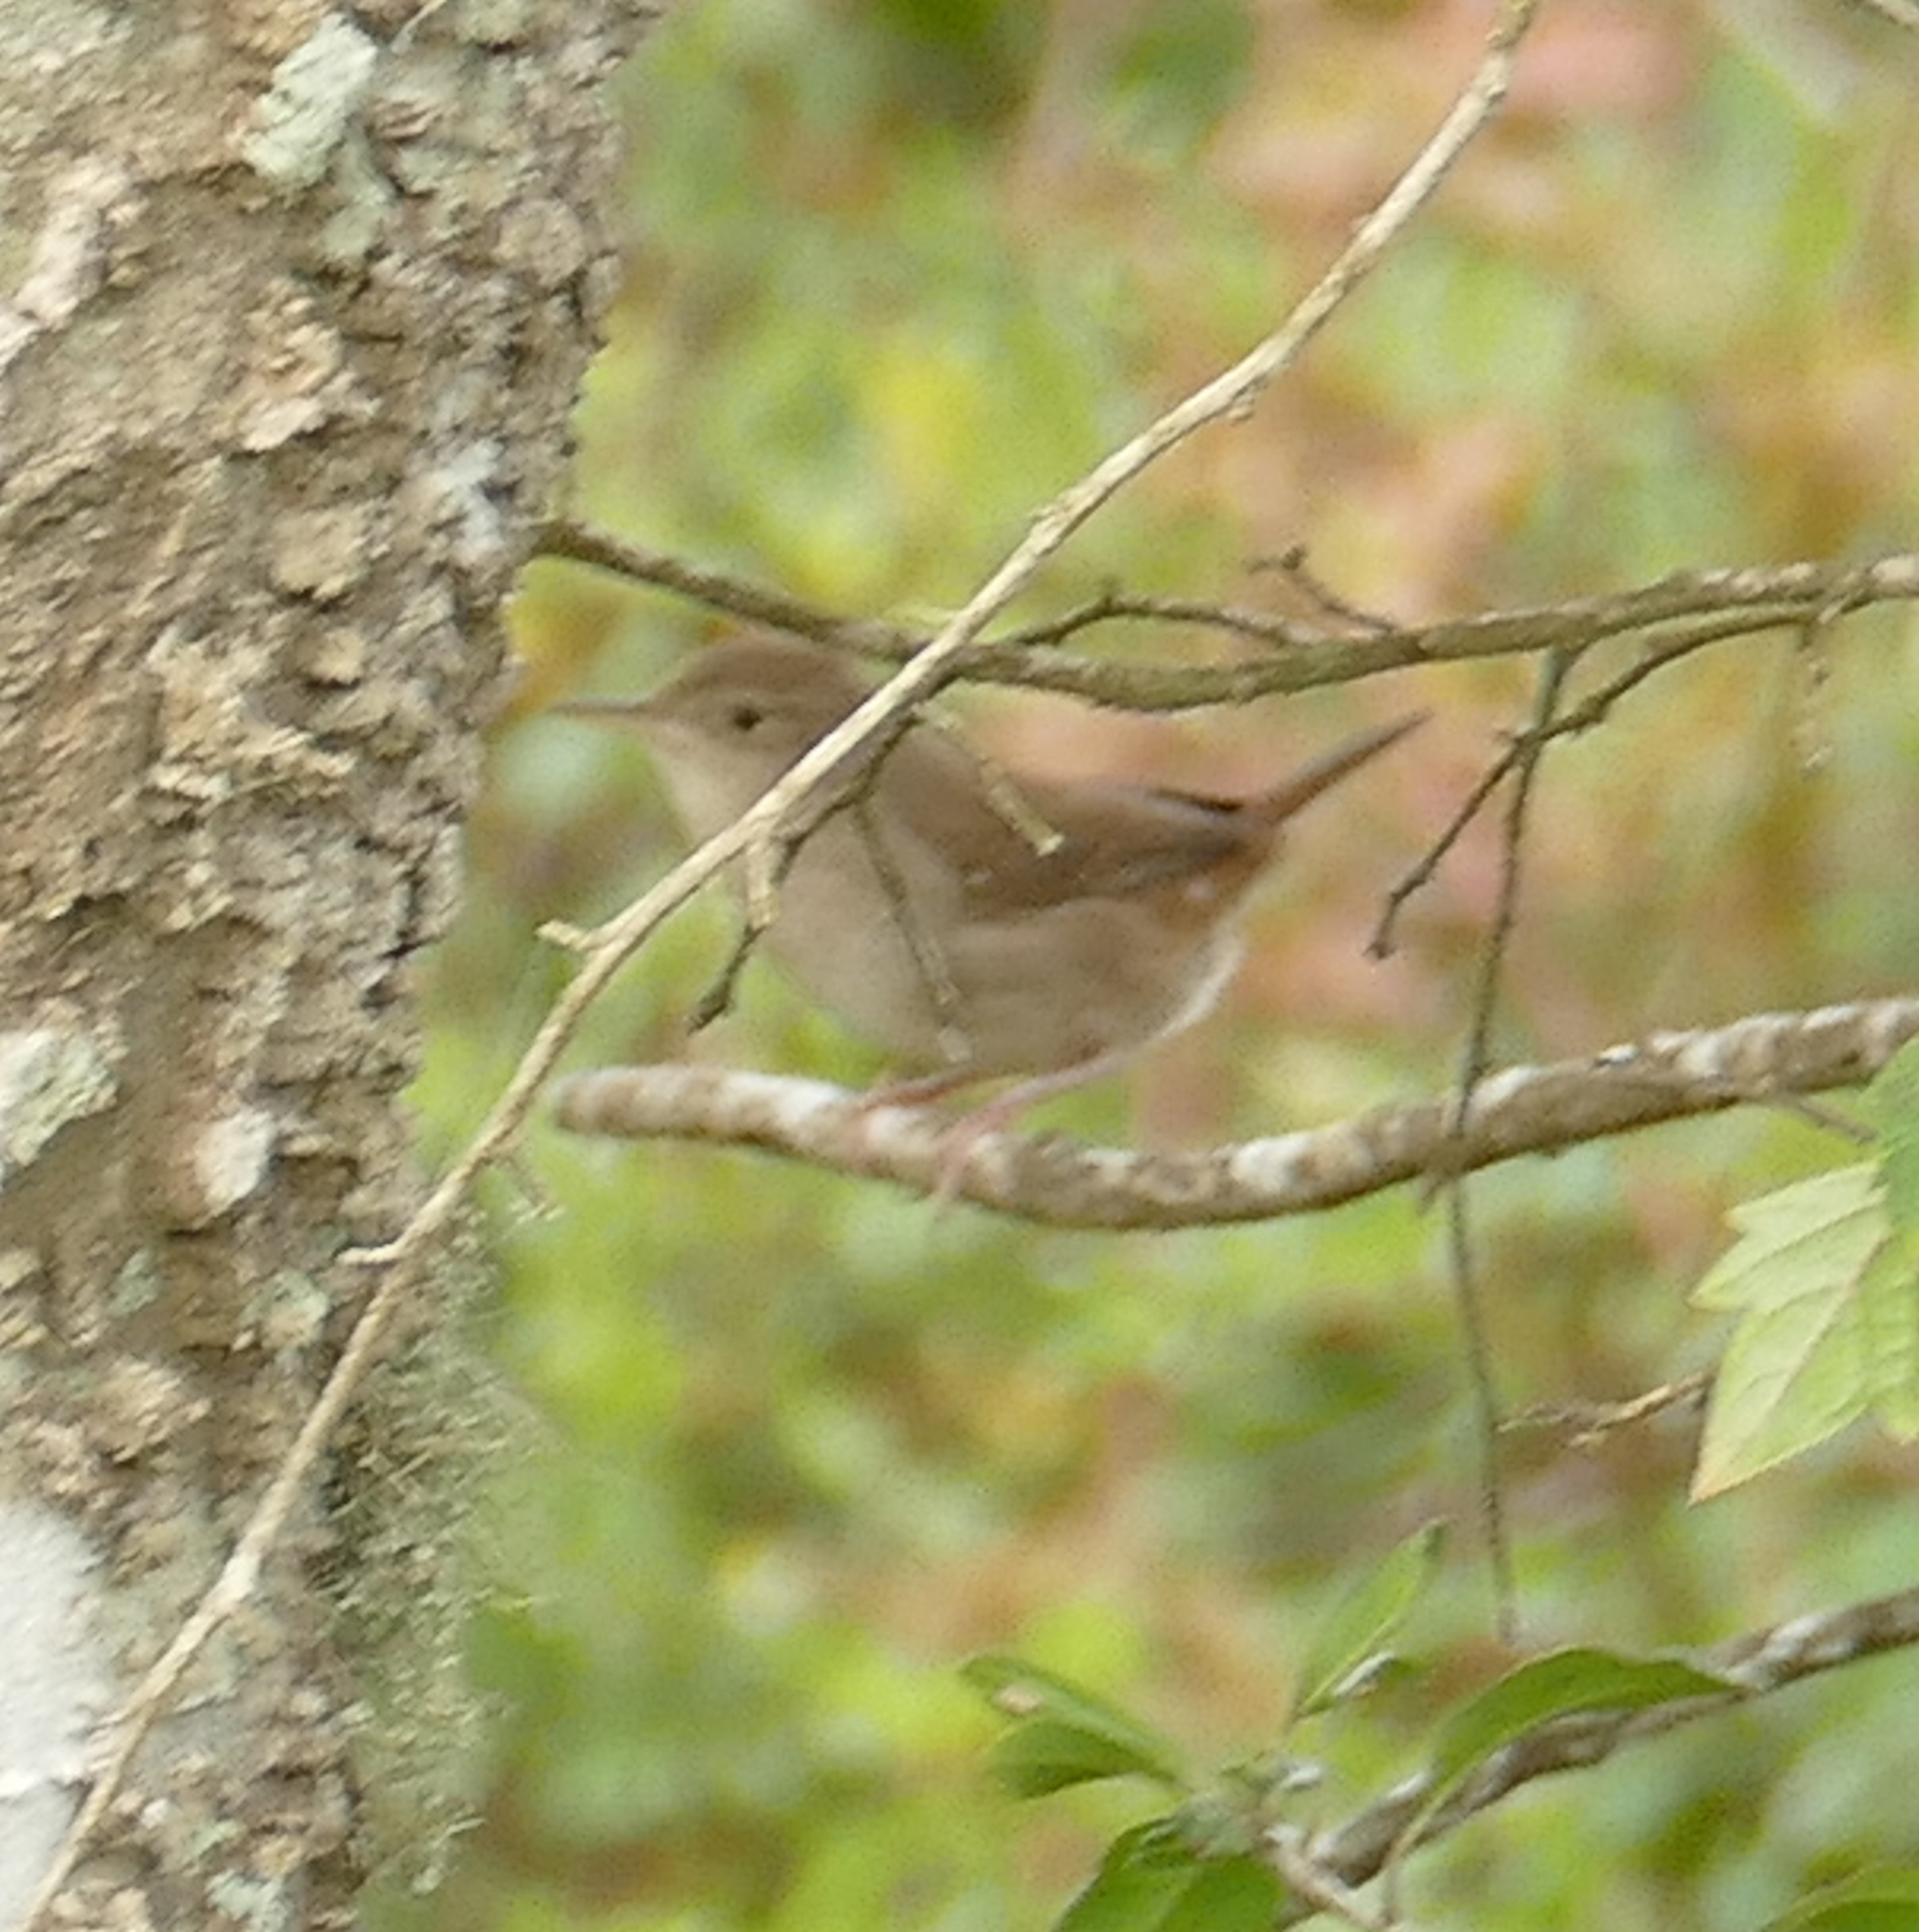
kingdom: Animalia
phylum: Chordata
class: Aves
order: Passeriformes
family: Troglodytidae
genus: Troglodytes
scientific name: Troglodytes aedon
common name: House wren
